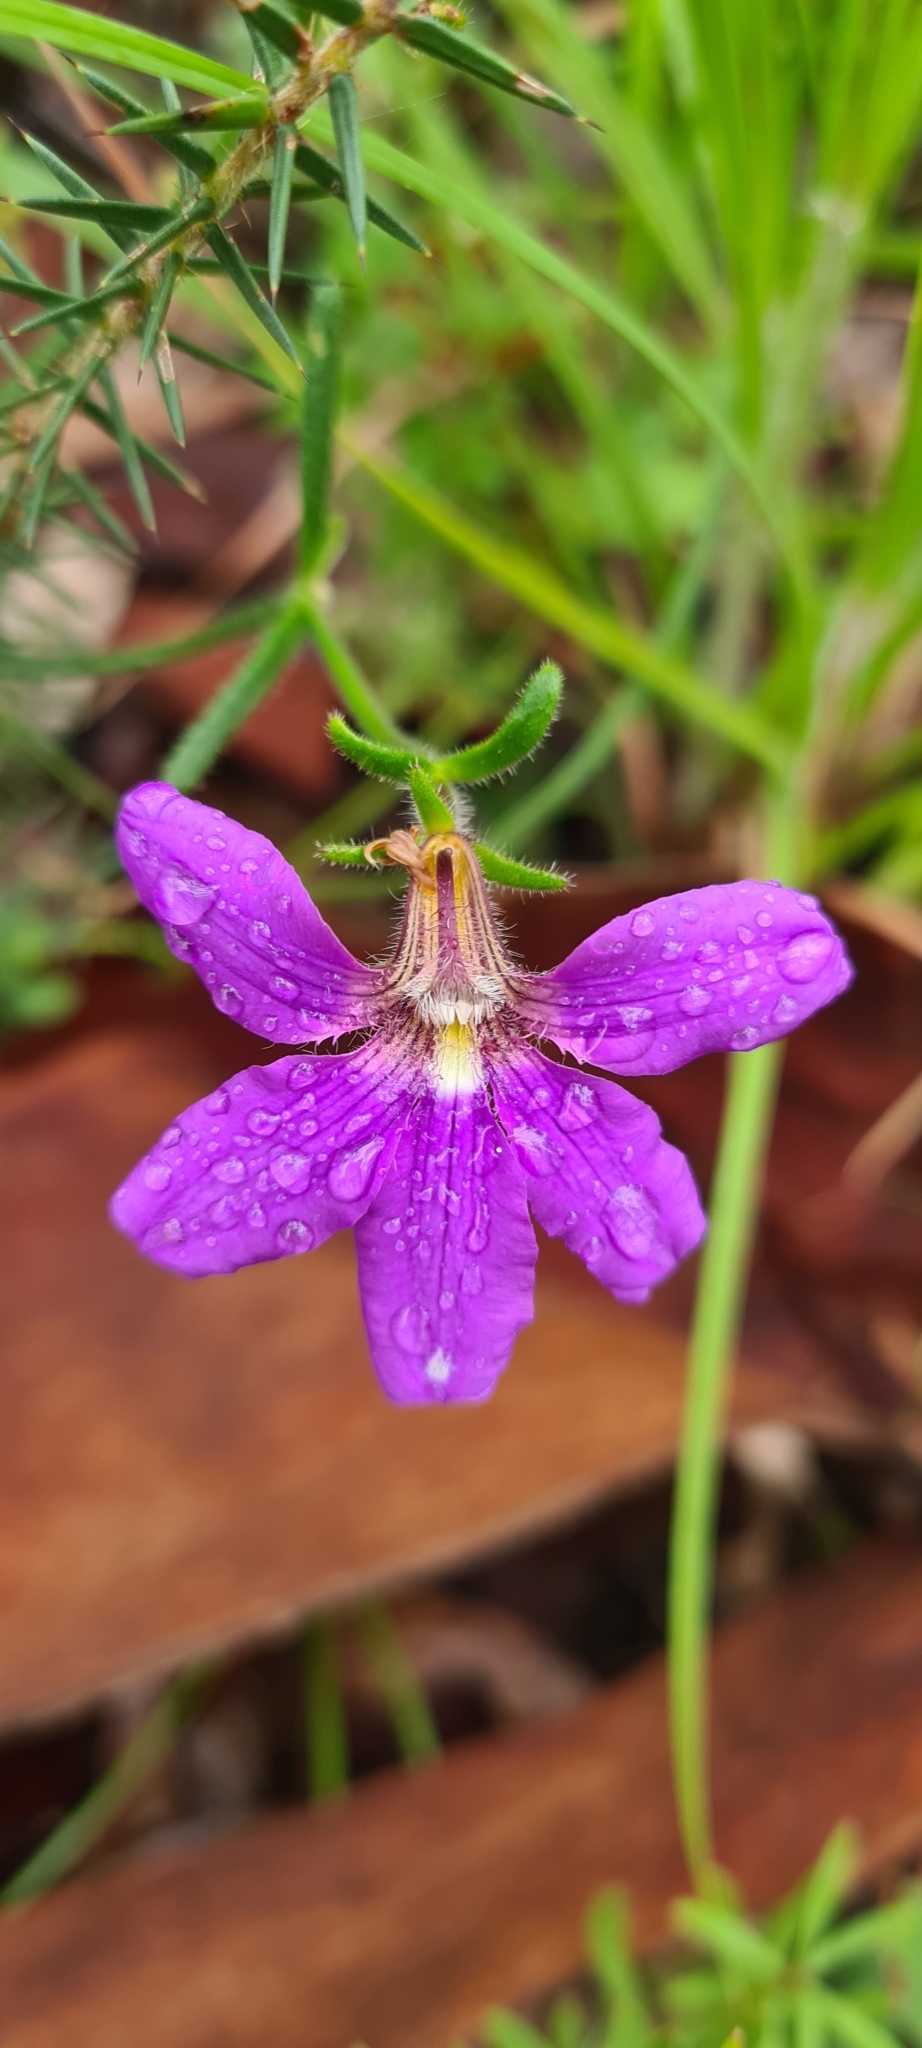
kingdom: Plantae
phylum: Tracheophyta
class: Magnoliopsida
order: Asterales
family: Goodeniaceae
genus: Scaevola
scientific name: Scaevola ramosissima
